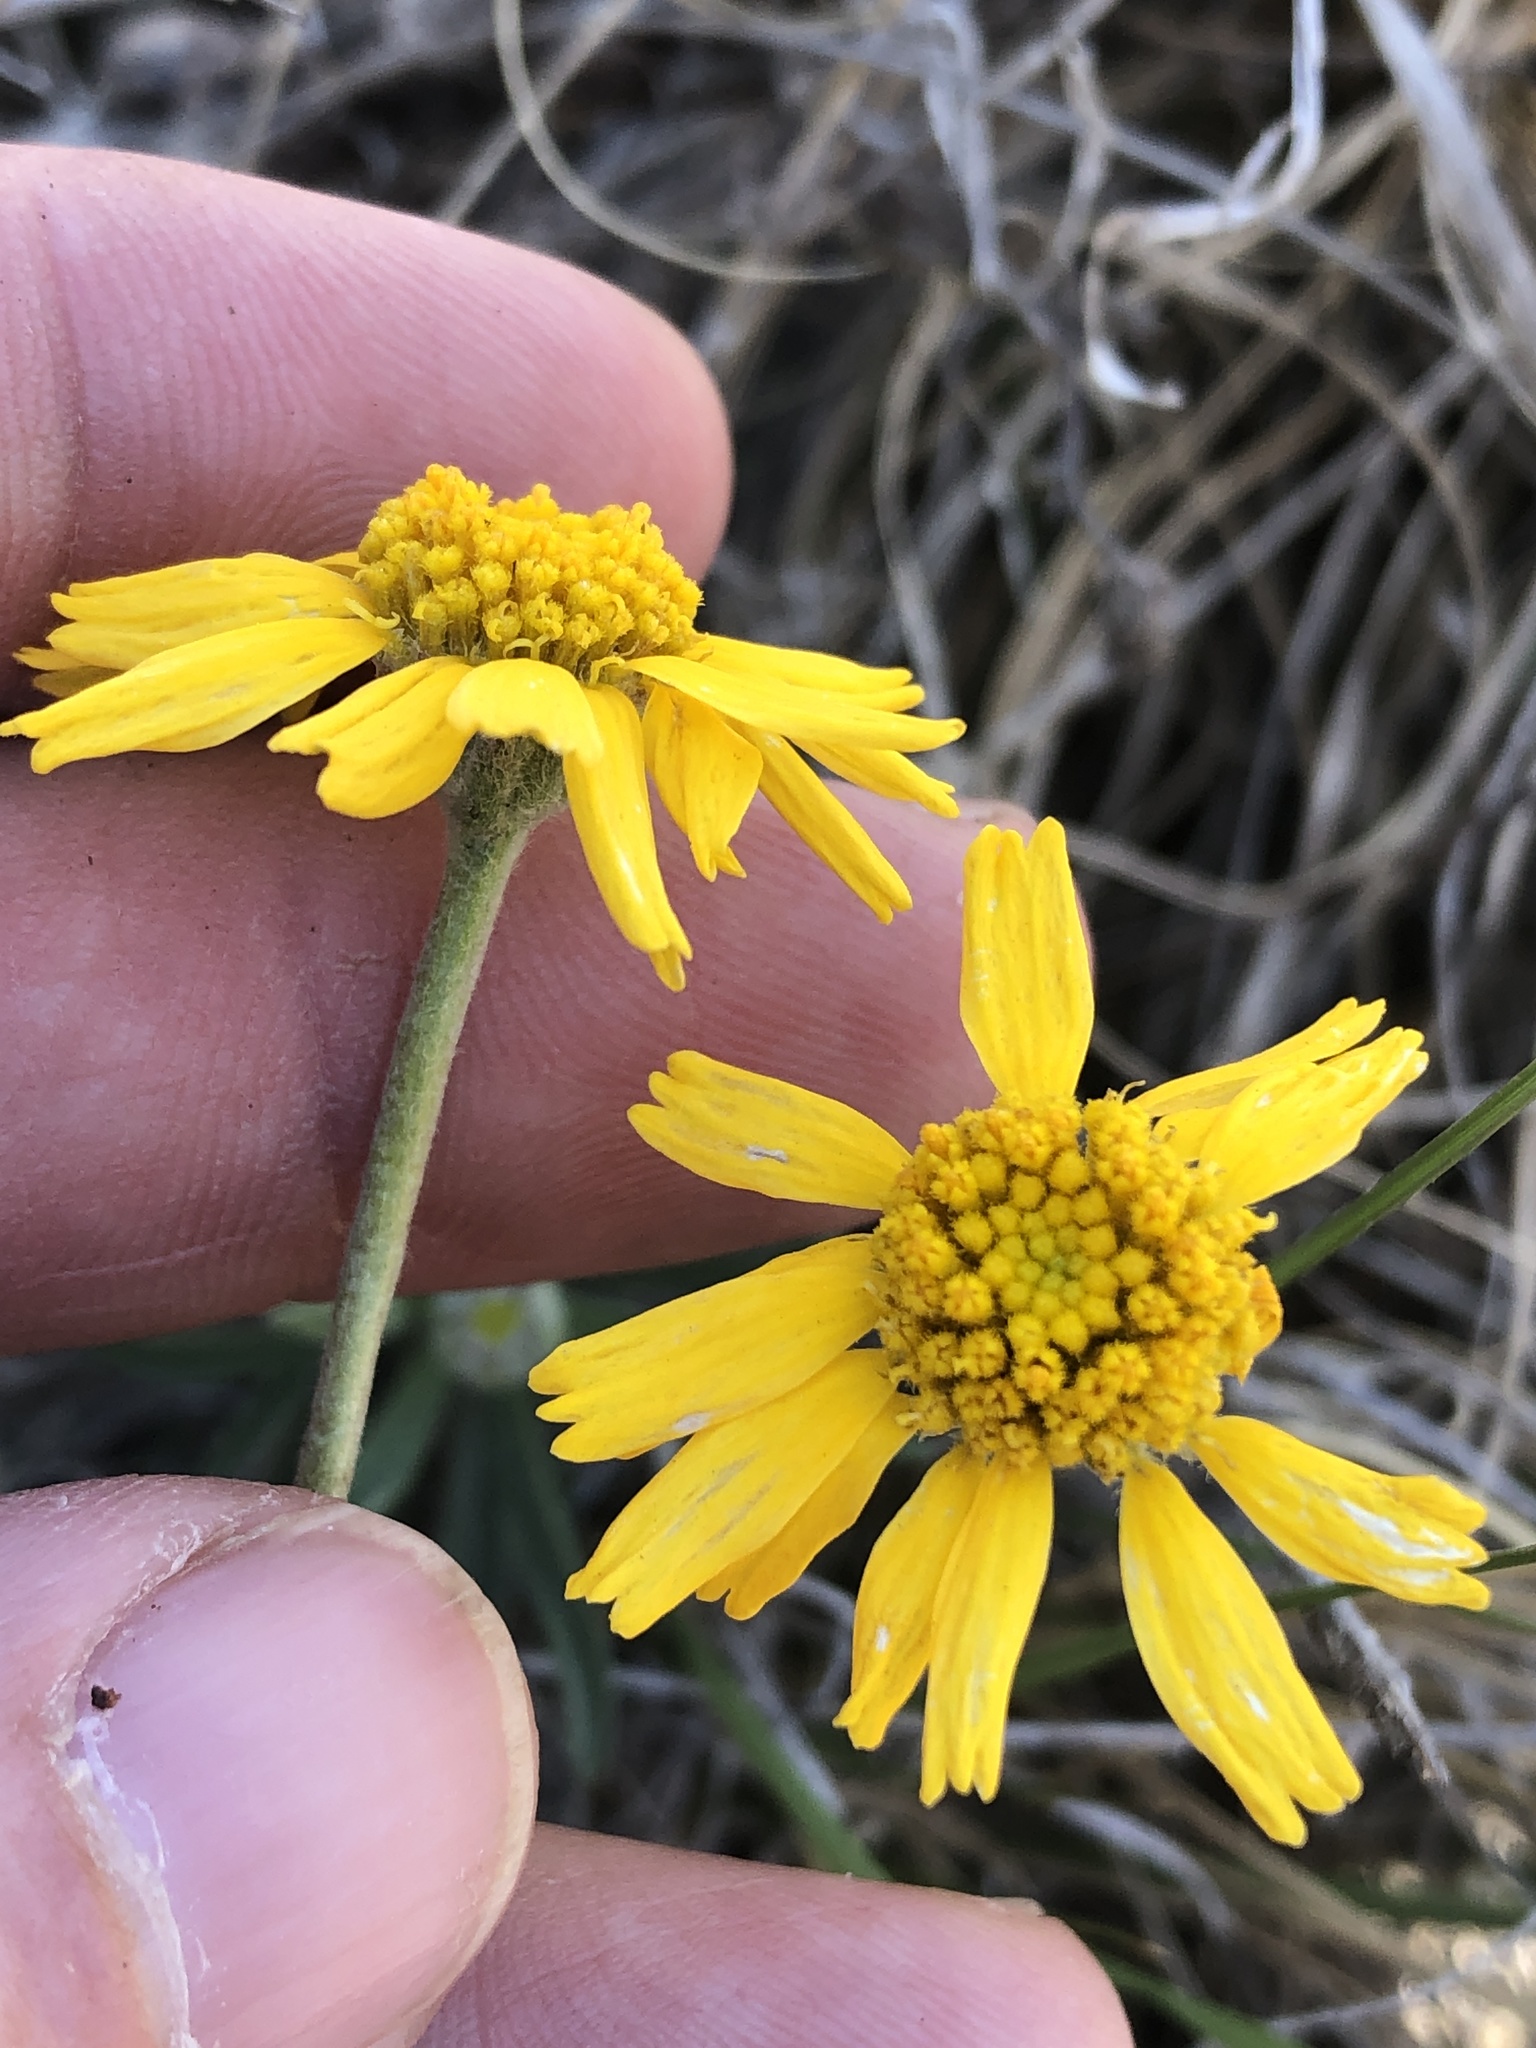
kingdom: Plantae
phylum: Tracheophyta
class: Magnoliopsida
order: Asterales
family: Asteraceae
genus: Tetraneuris
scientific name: Tetraneuris scaposa
